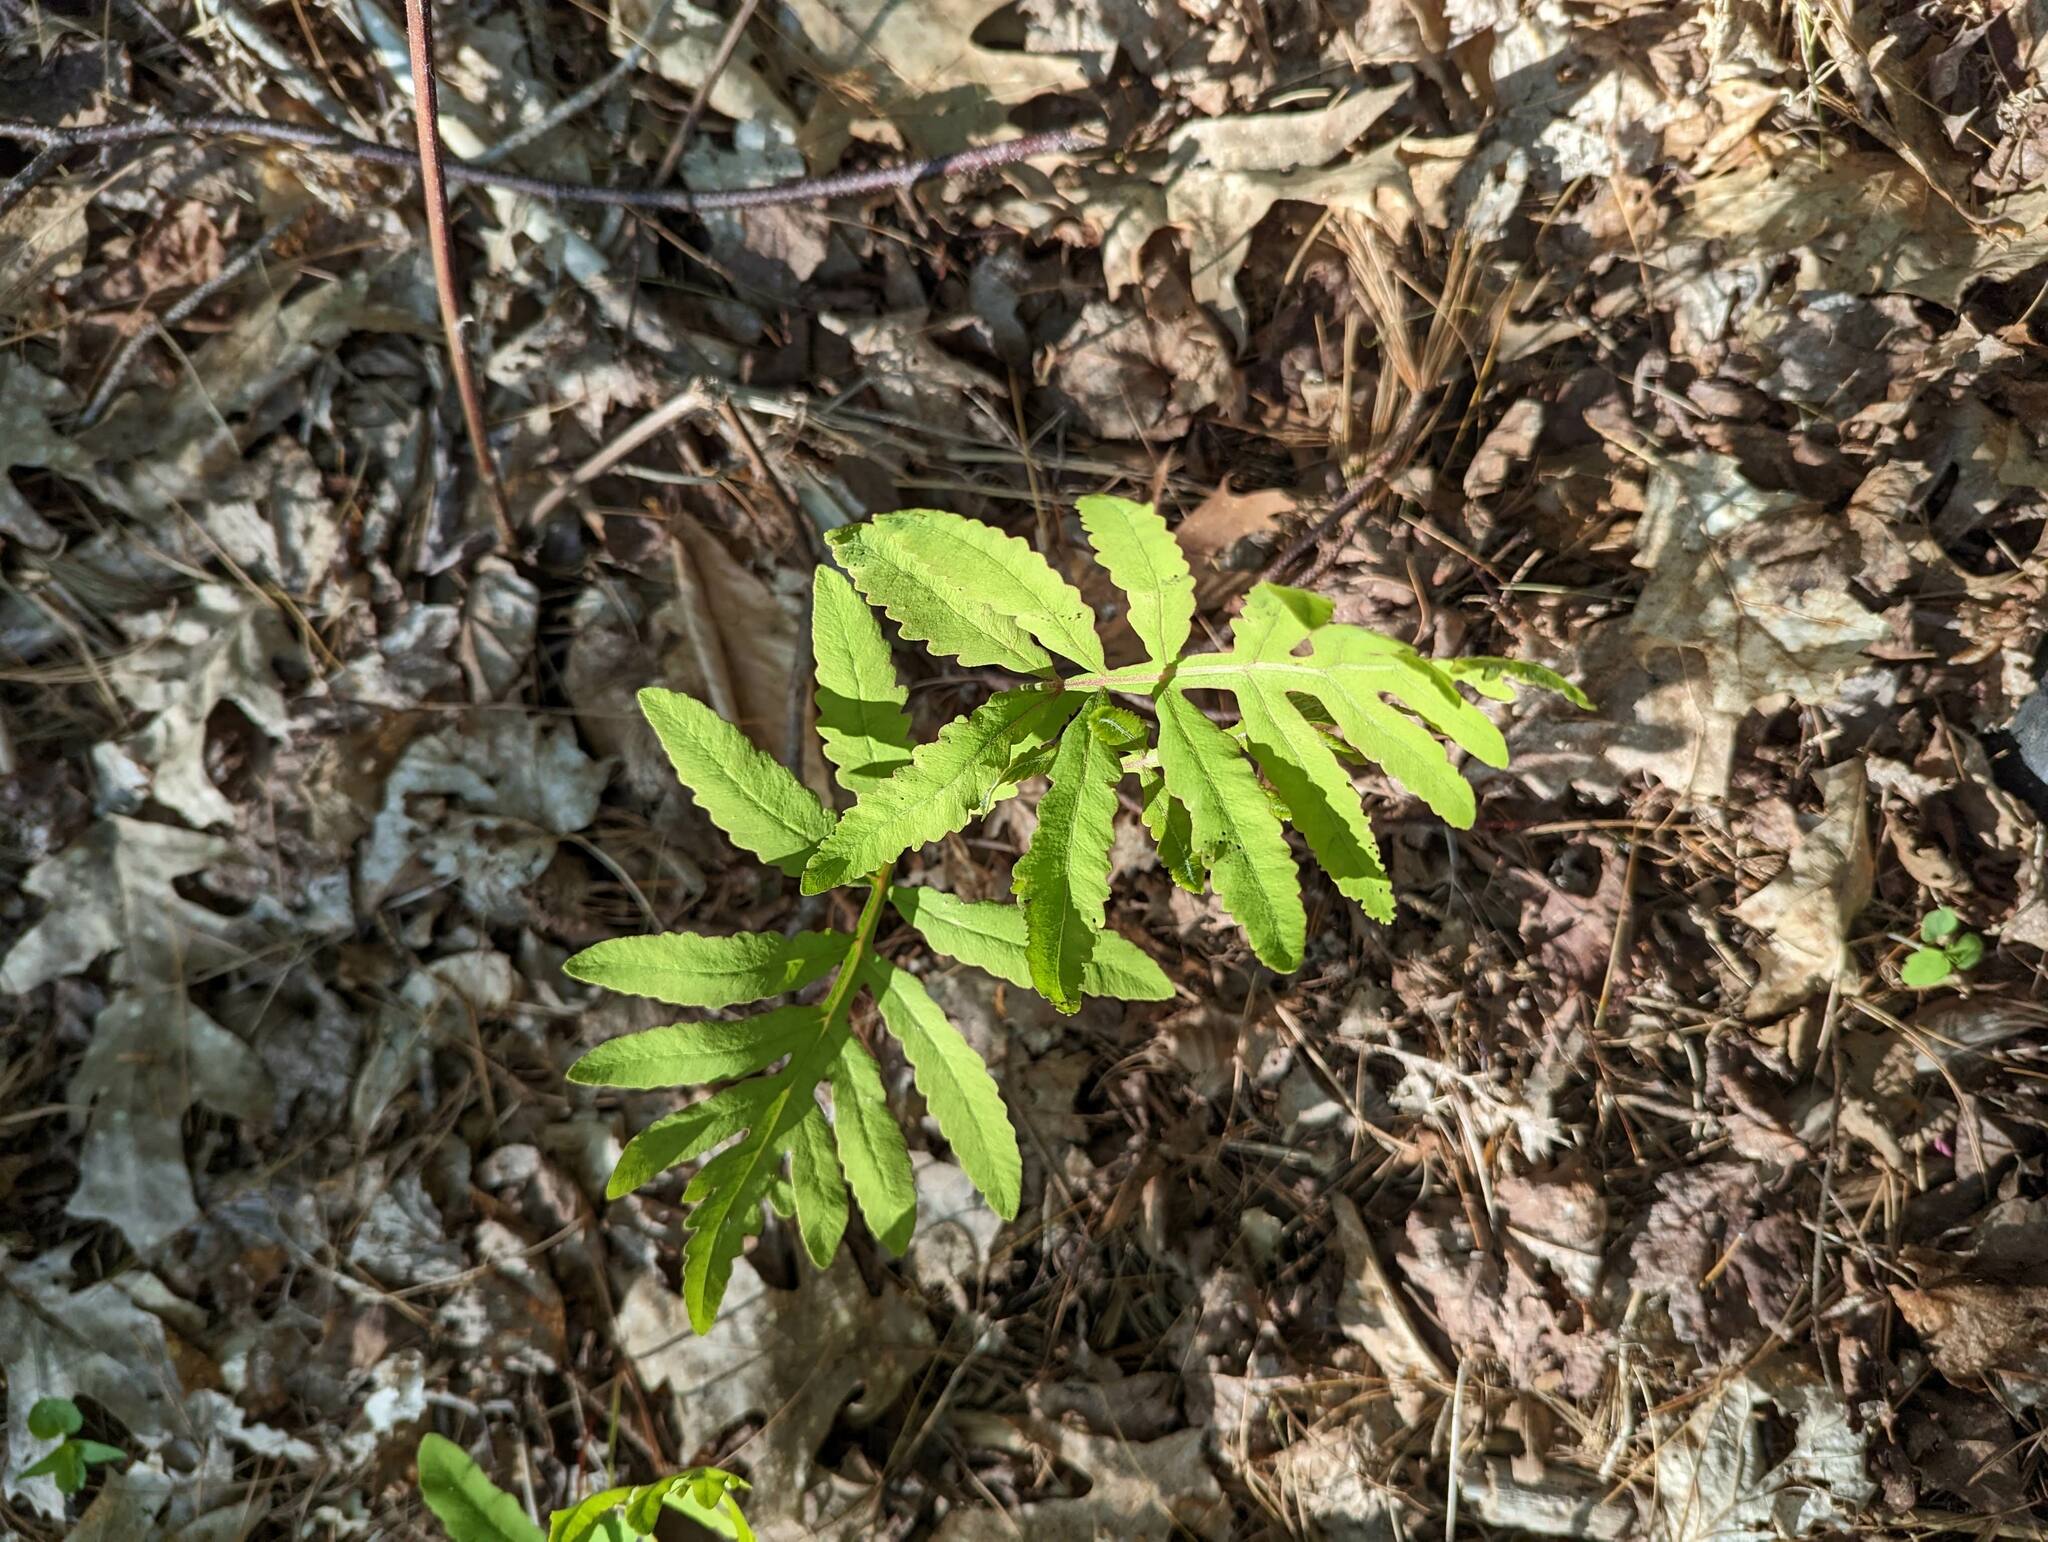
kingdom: Plantae
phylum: Tracheophyta
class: Polypodiopsida
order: Polypodiales
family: Onocleaceae
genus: Onoclea
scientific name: Onoclea sensibilis
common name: Sensitive fern
